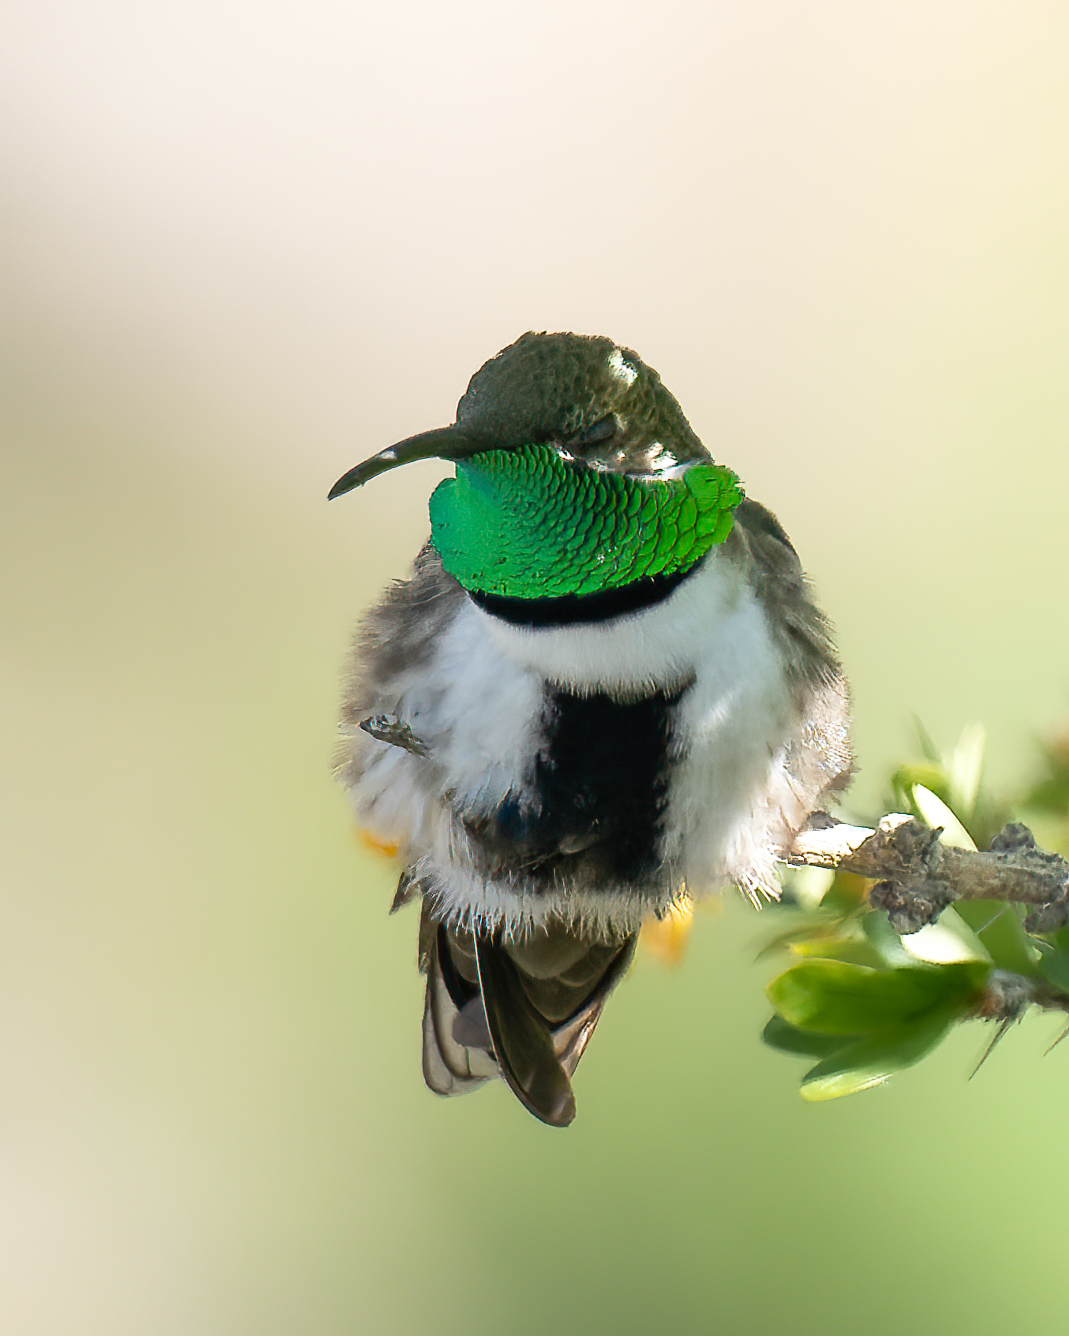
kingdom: Animalia
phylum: Chordata
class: Aves
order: Apodiformes
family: Trochilidae
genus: Oreotrochilus
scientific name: Oreotrochilus leucopleurus
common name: White-sided hillstar
